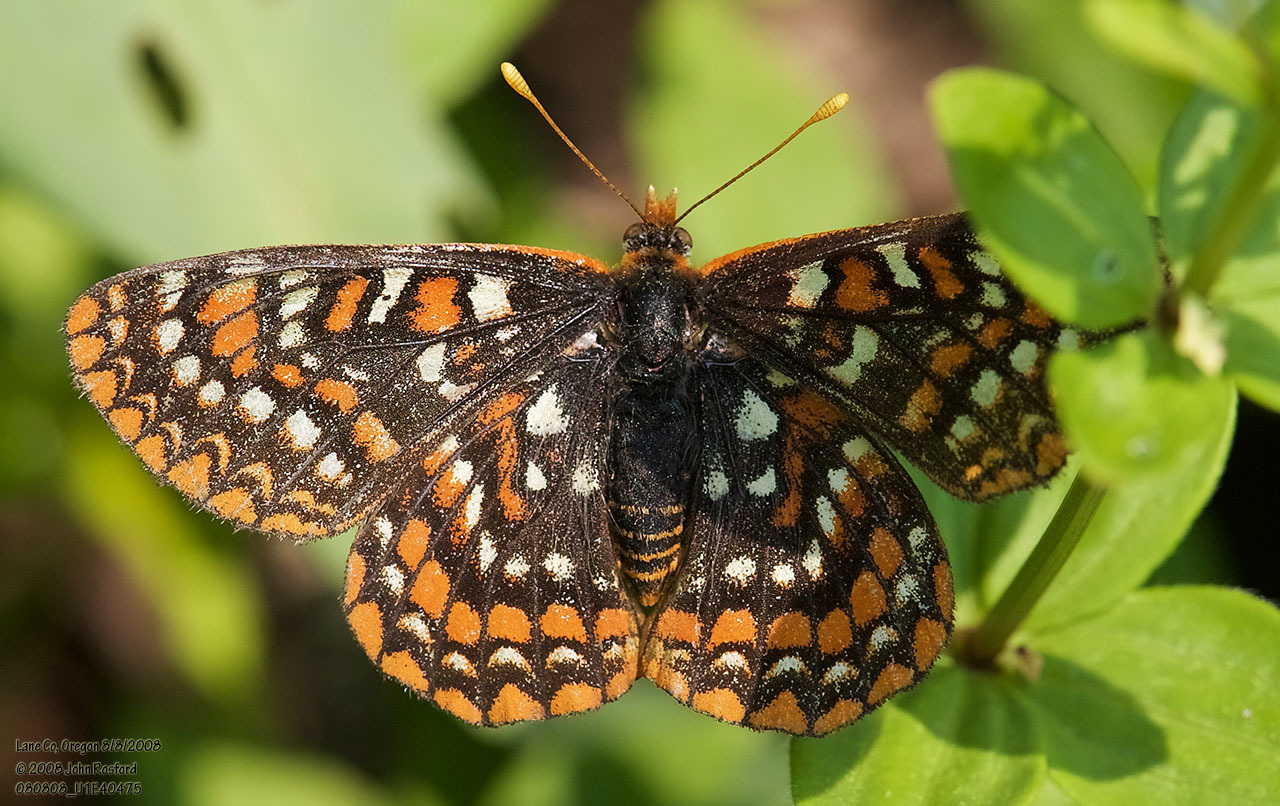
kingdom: Animalia
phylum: Arthropoda
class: Insecta
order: Lepidoptera
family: Nymphalidae
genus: Occidryas
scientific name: Occidryas editha
